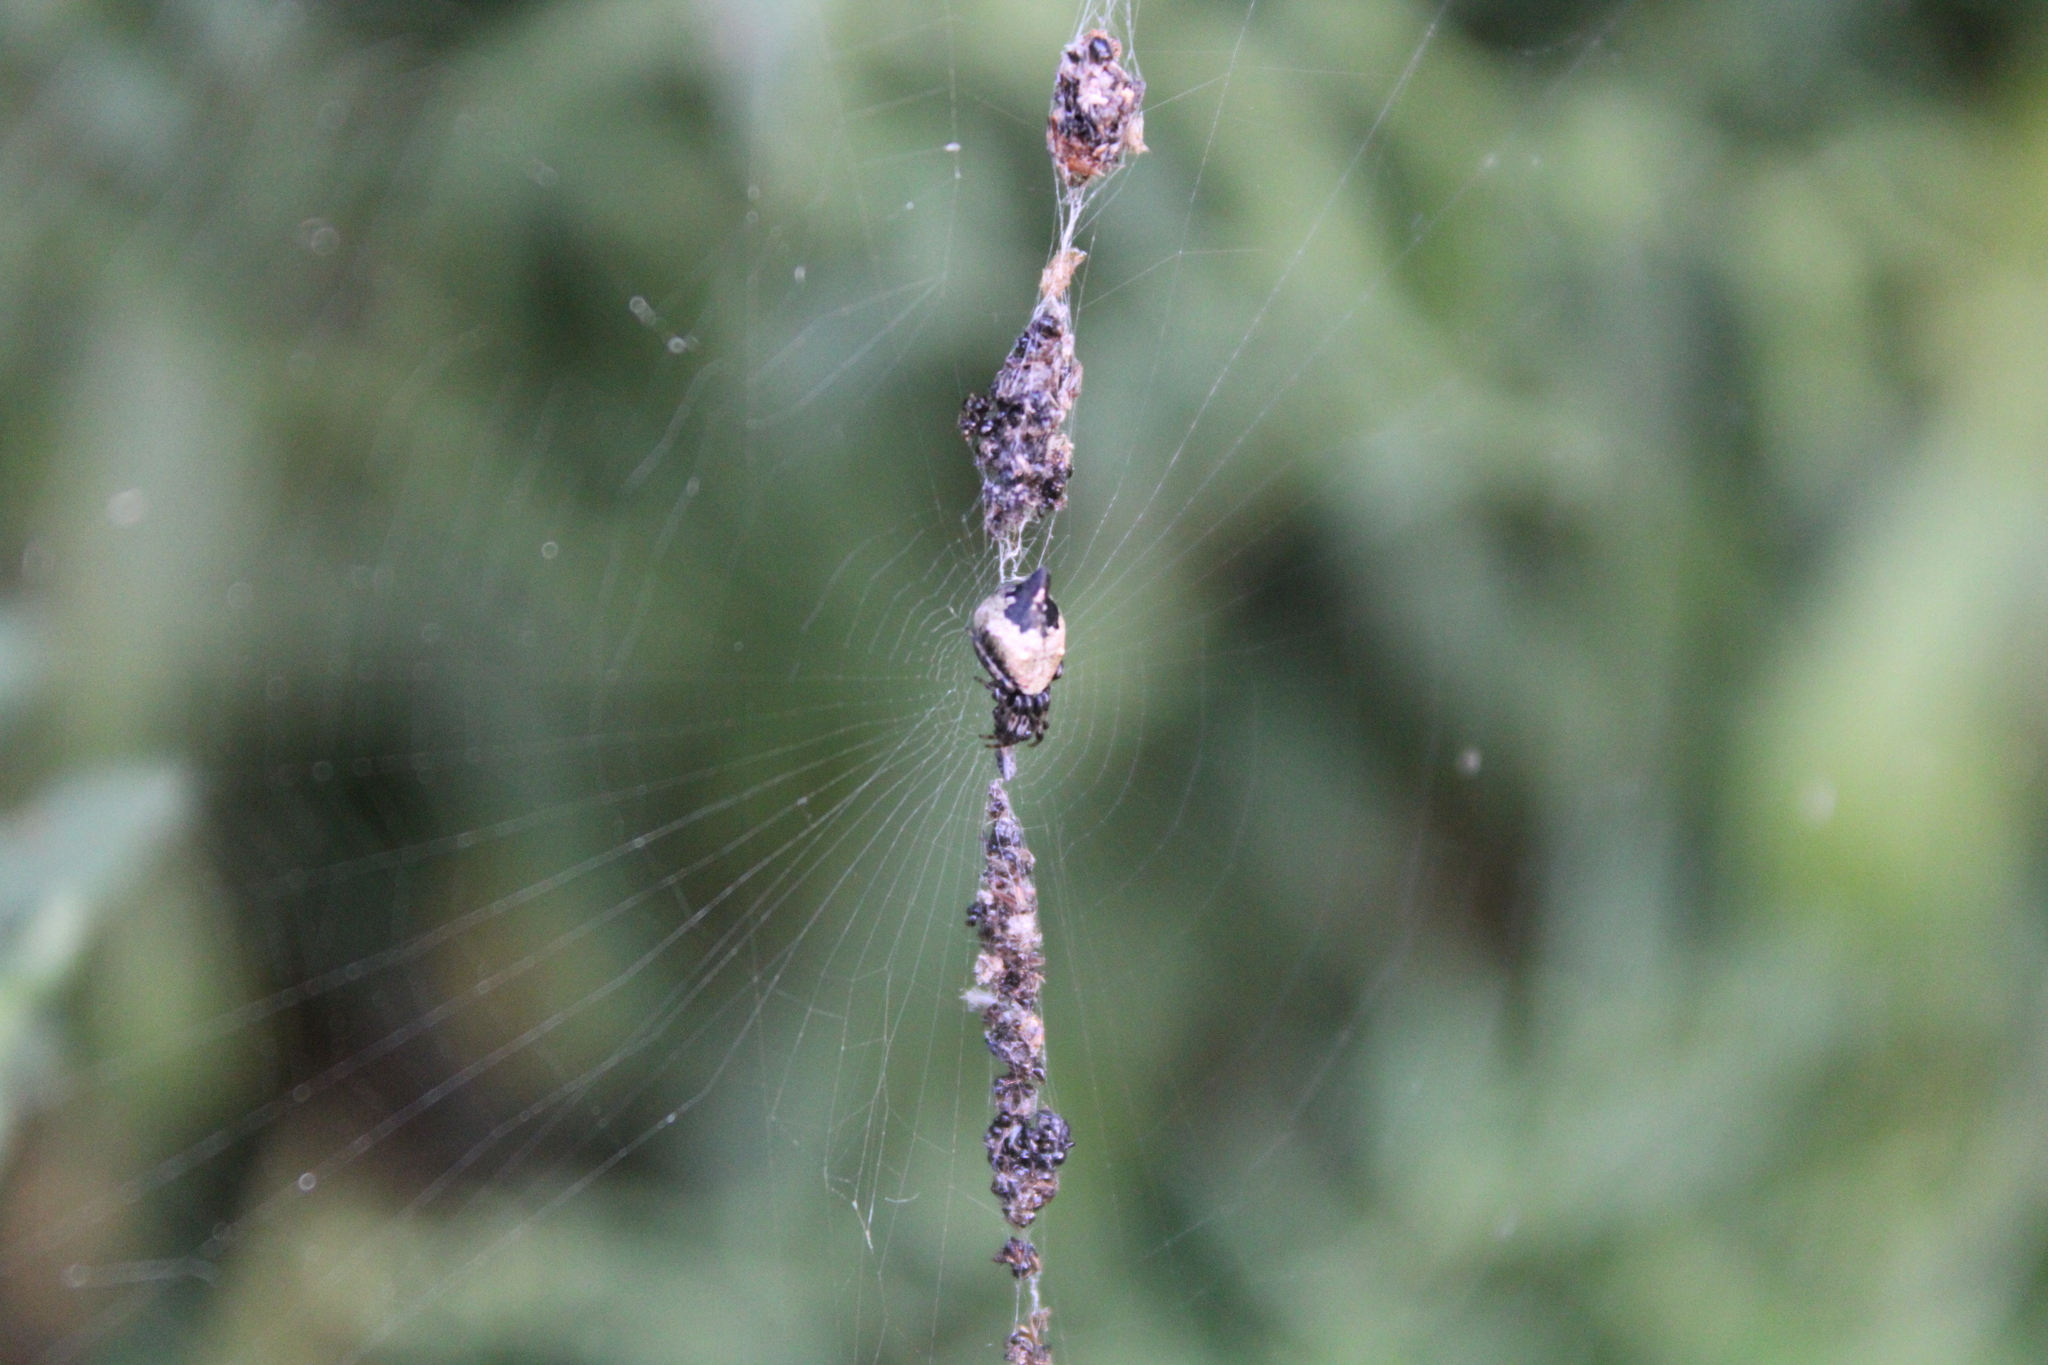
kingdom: Animalia
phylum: Arthropoda
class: Arachnida
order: Araneae
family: Araneidae
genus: Cyclosa
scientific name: Cyclosa turbinata
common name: Orb weavers
